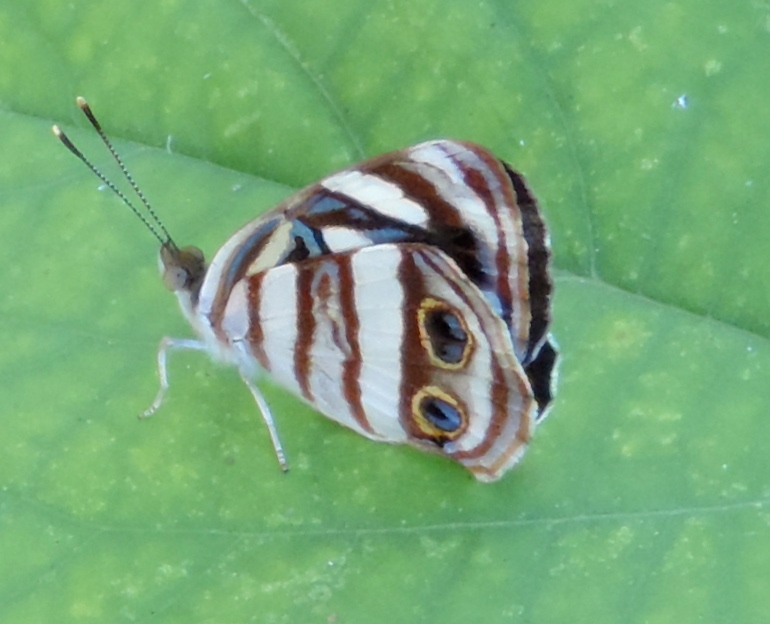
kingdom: Animalia
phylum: Arthropoda
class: Insecta
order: Lepidoptera
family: Nymphalidae
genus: Dynamine
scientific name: Dynamine mylitta
